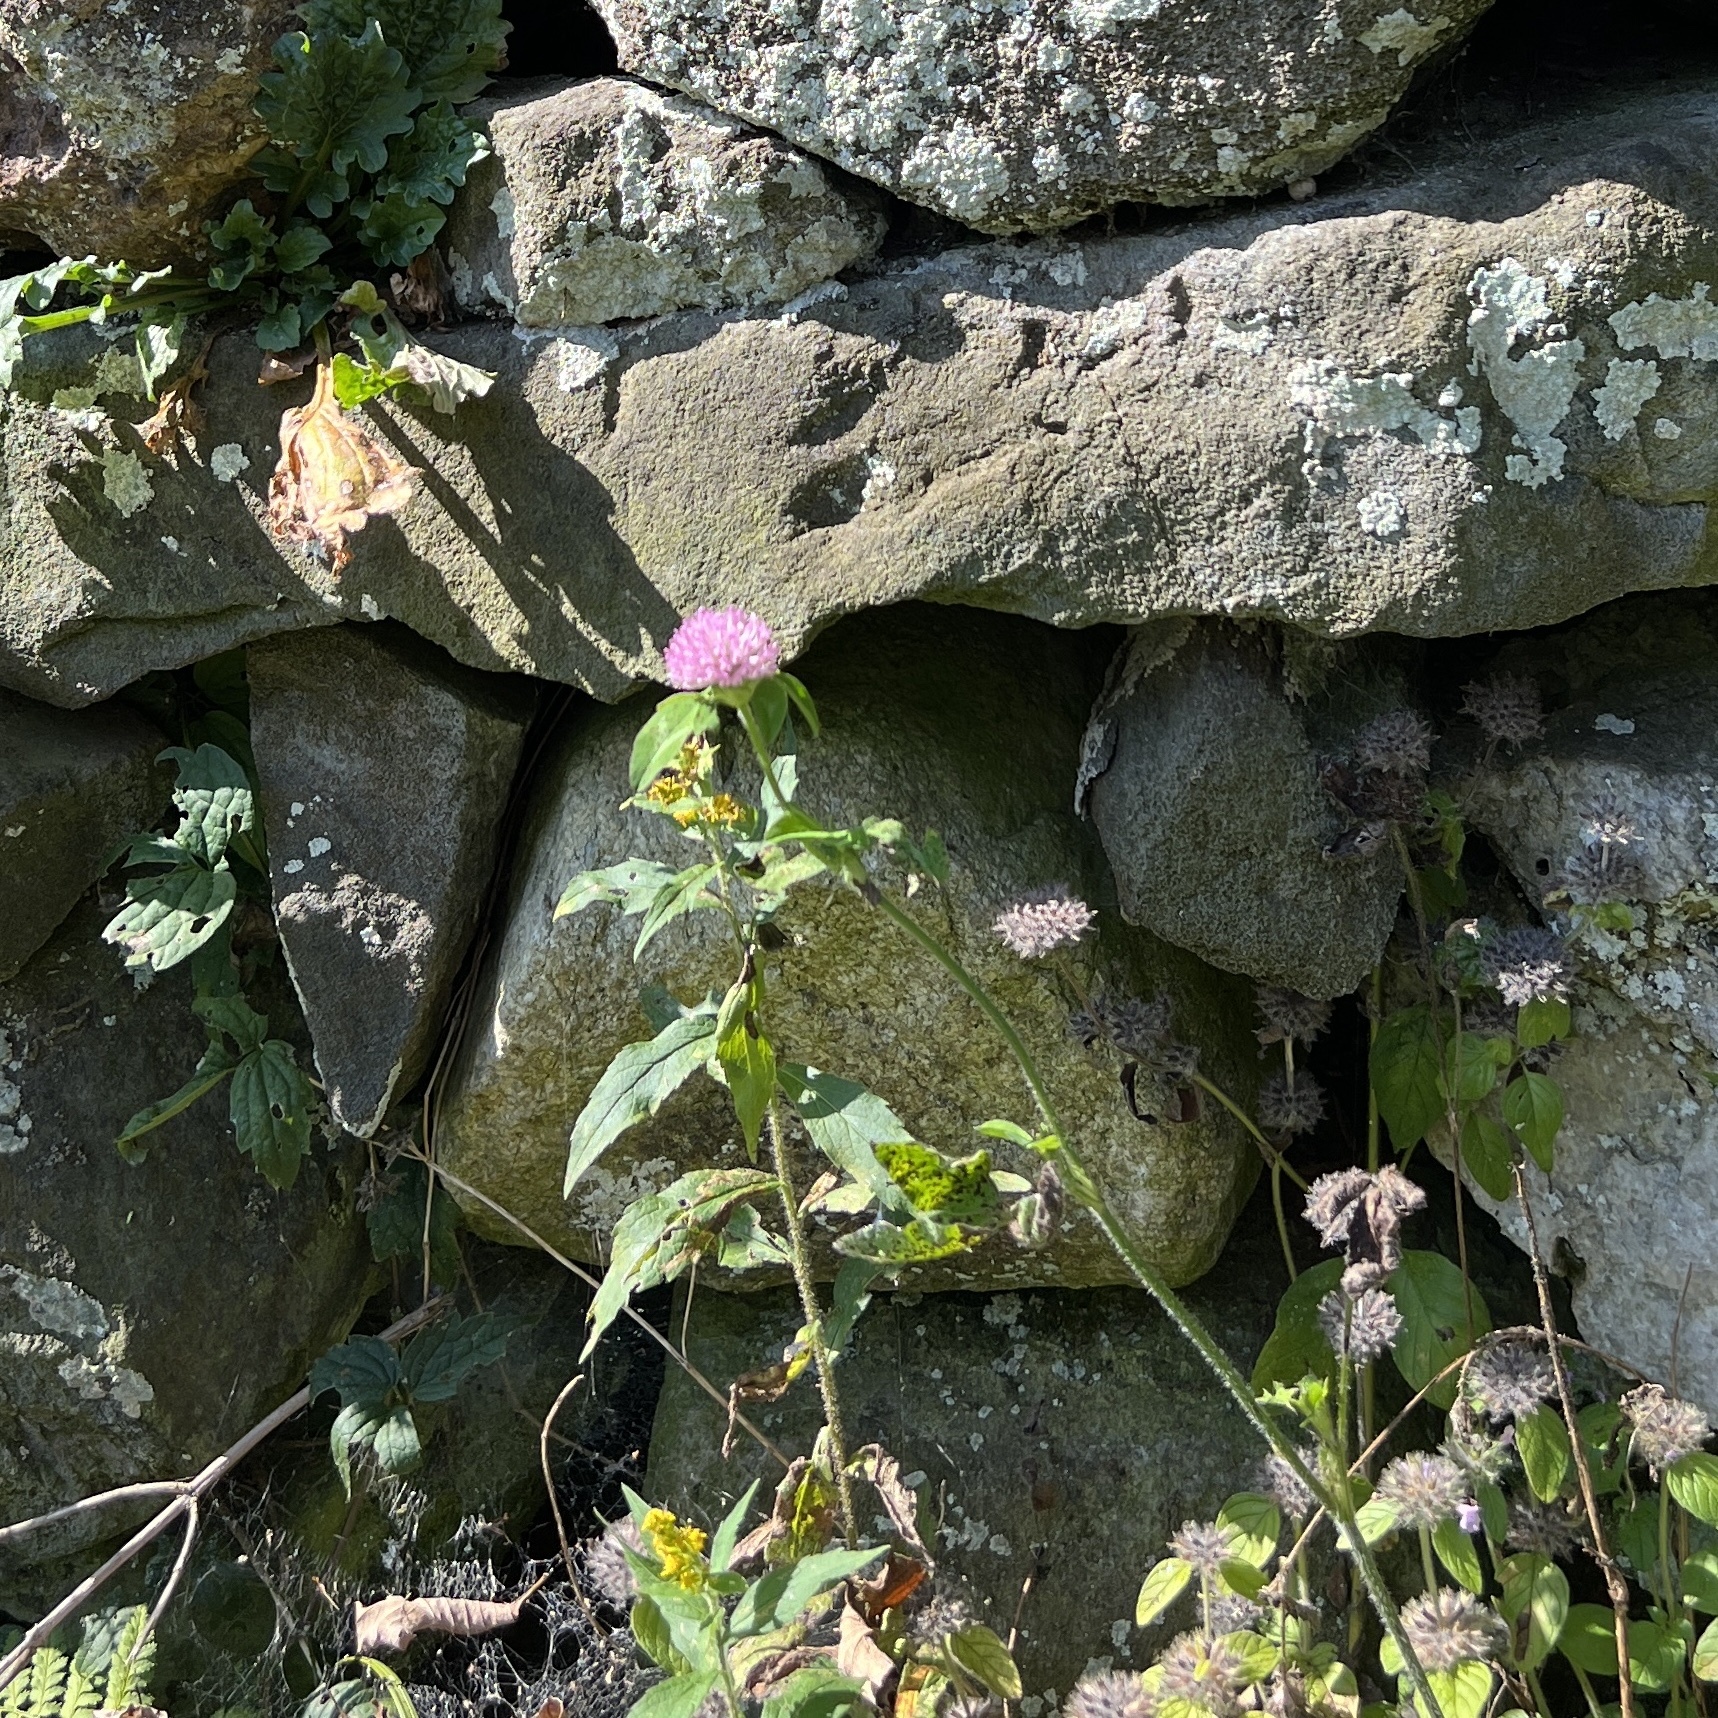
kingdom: Plantae
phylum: Tracheophyta
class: Magnoliopsida
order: Fabales
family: Fabaceae
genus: Trifolium
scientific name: Trifolium pratense
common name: Red clover
